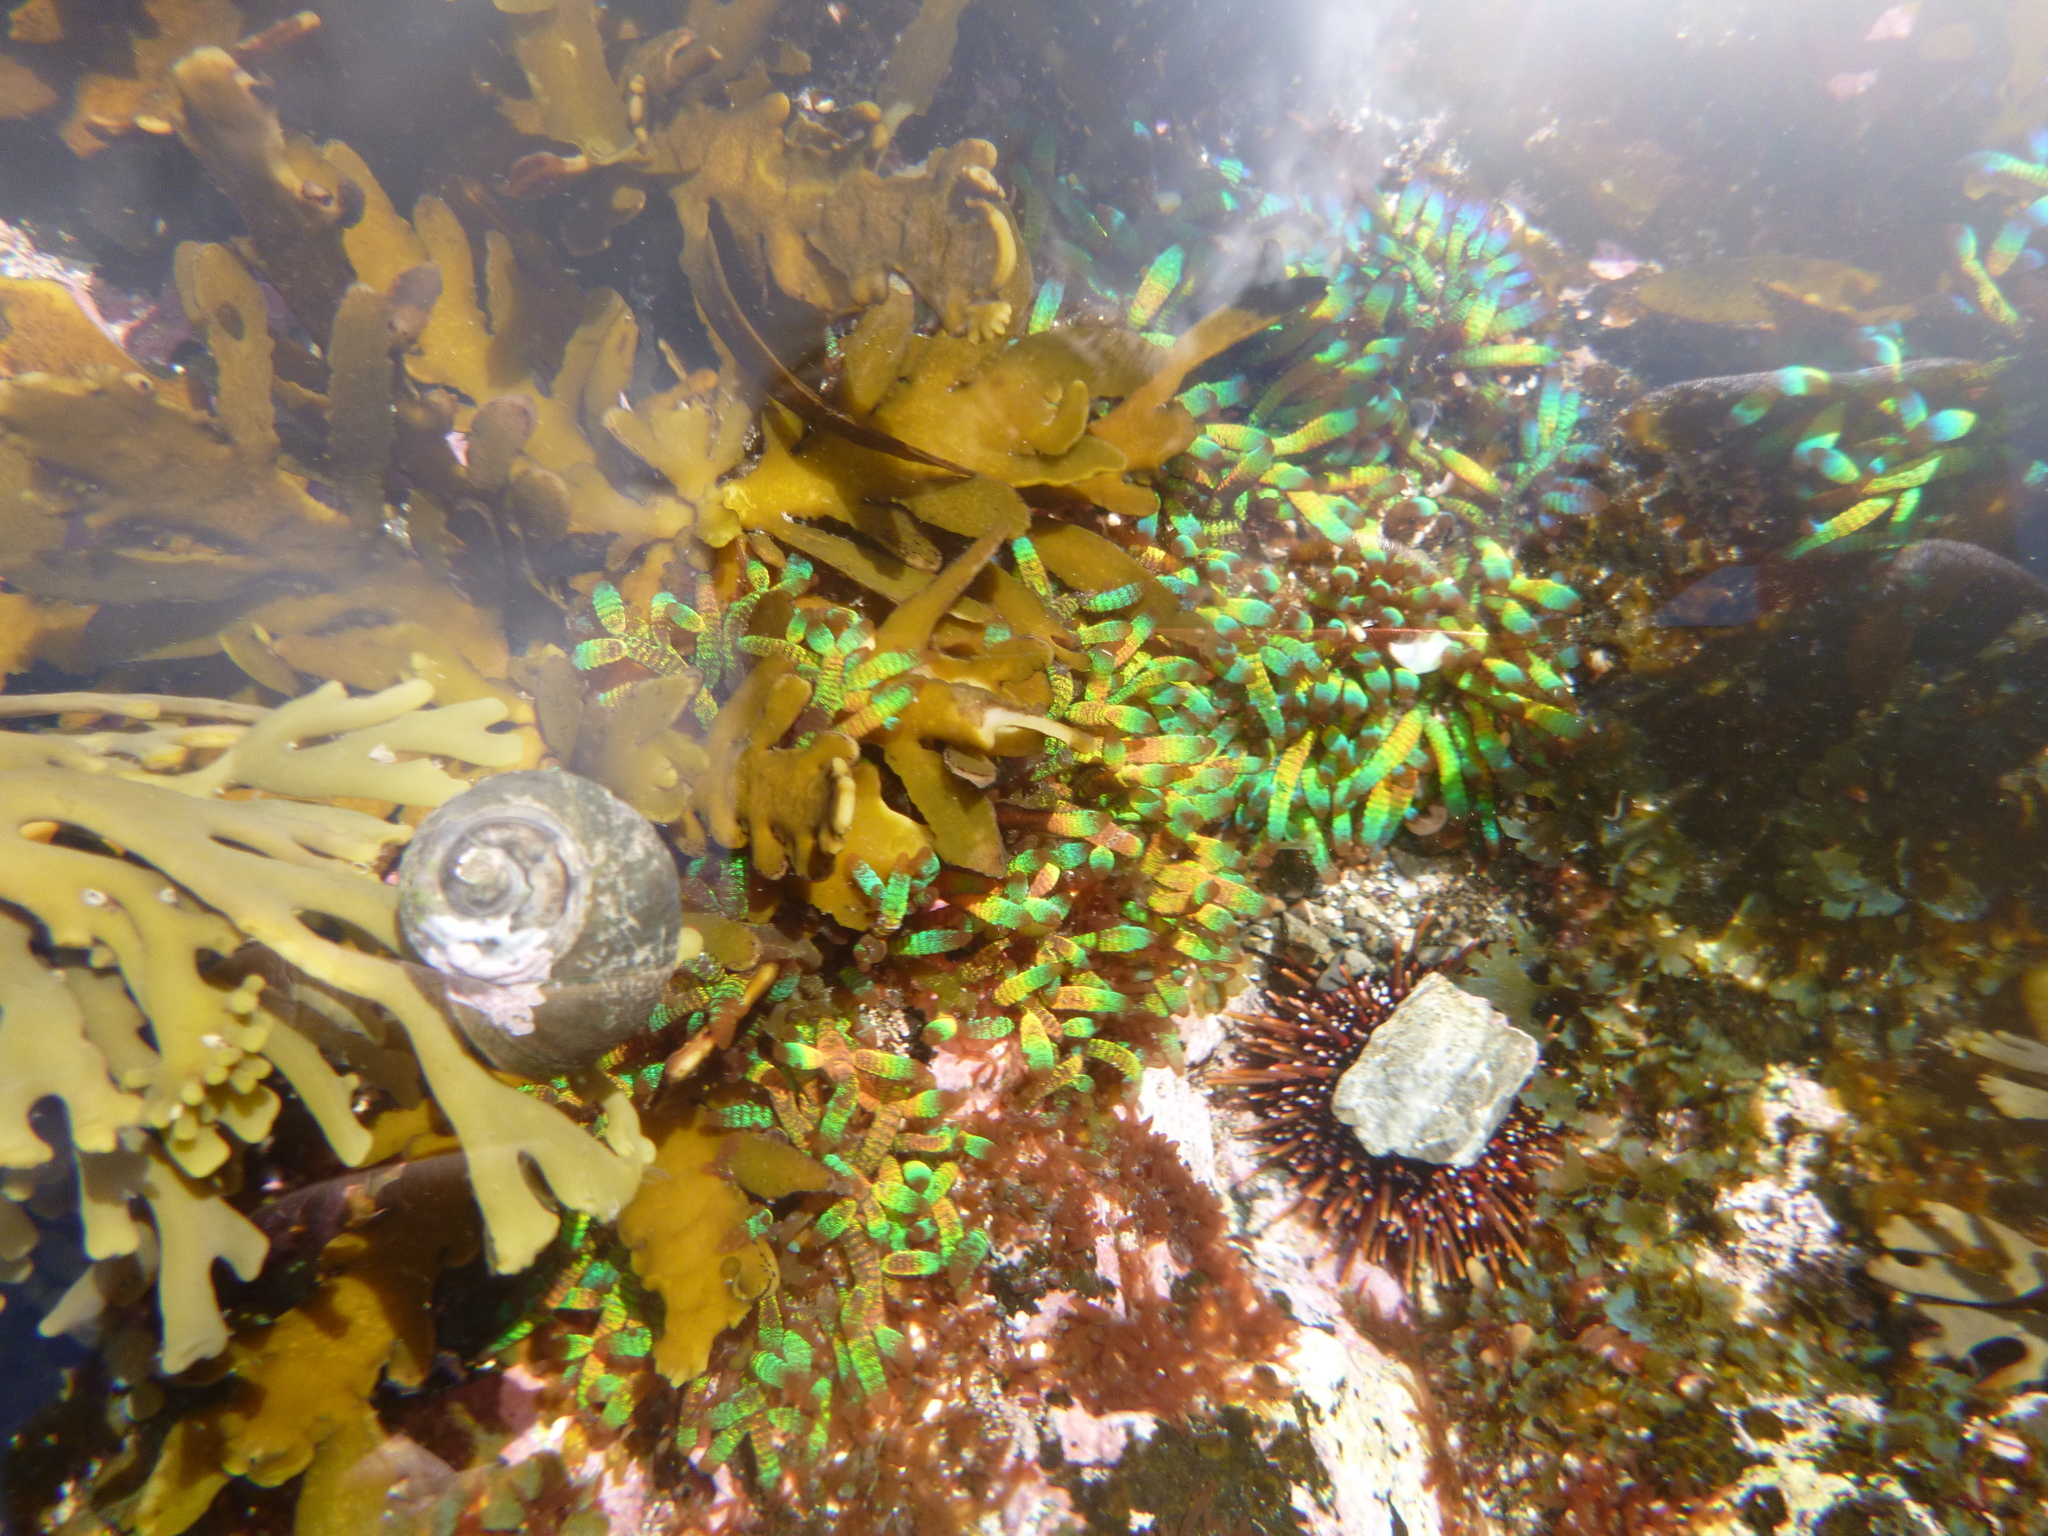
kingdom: Plantae
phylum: Rhodophyta
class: Florideophyceae
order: Rhodymeniales
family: Champiaceae
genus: Champia
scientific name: Champia laingii
